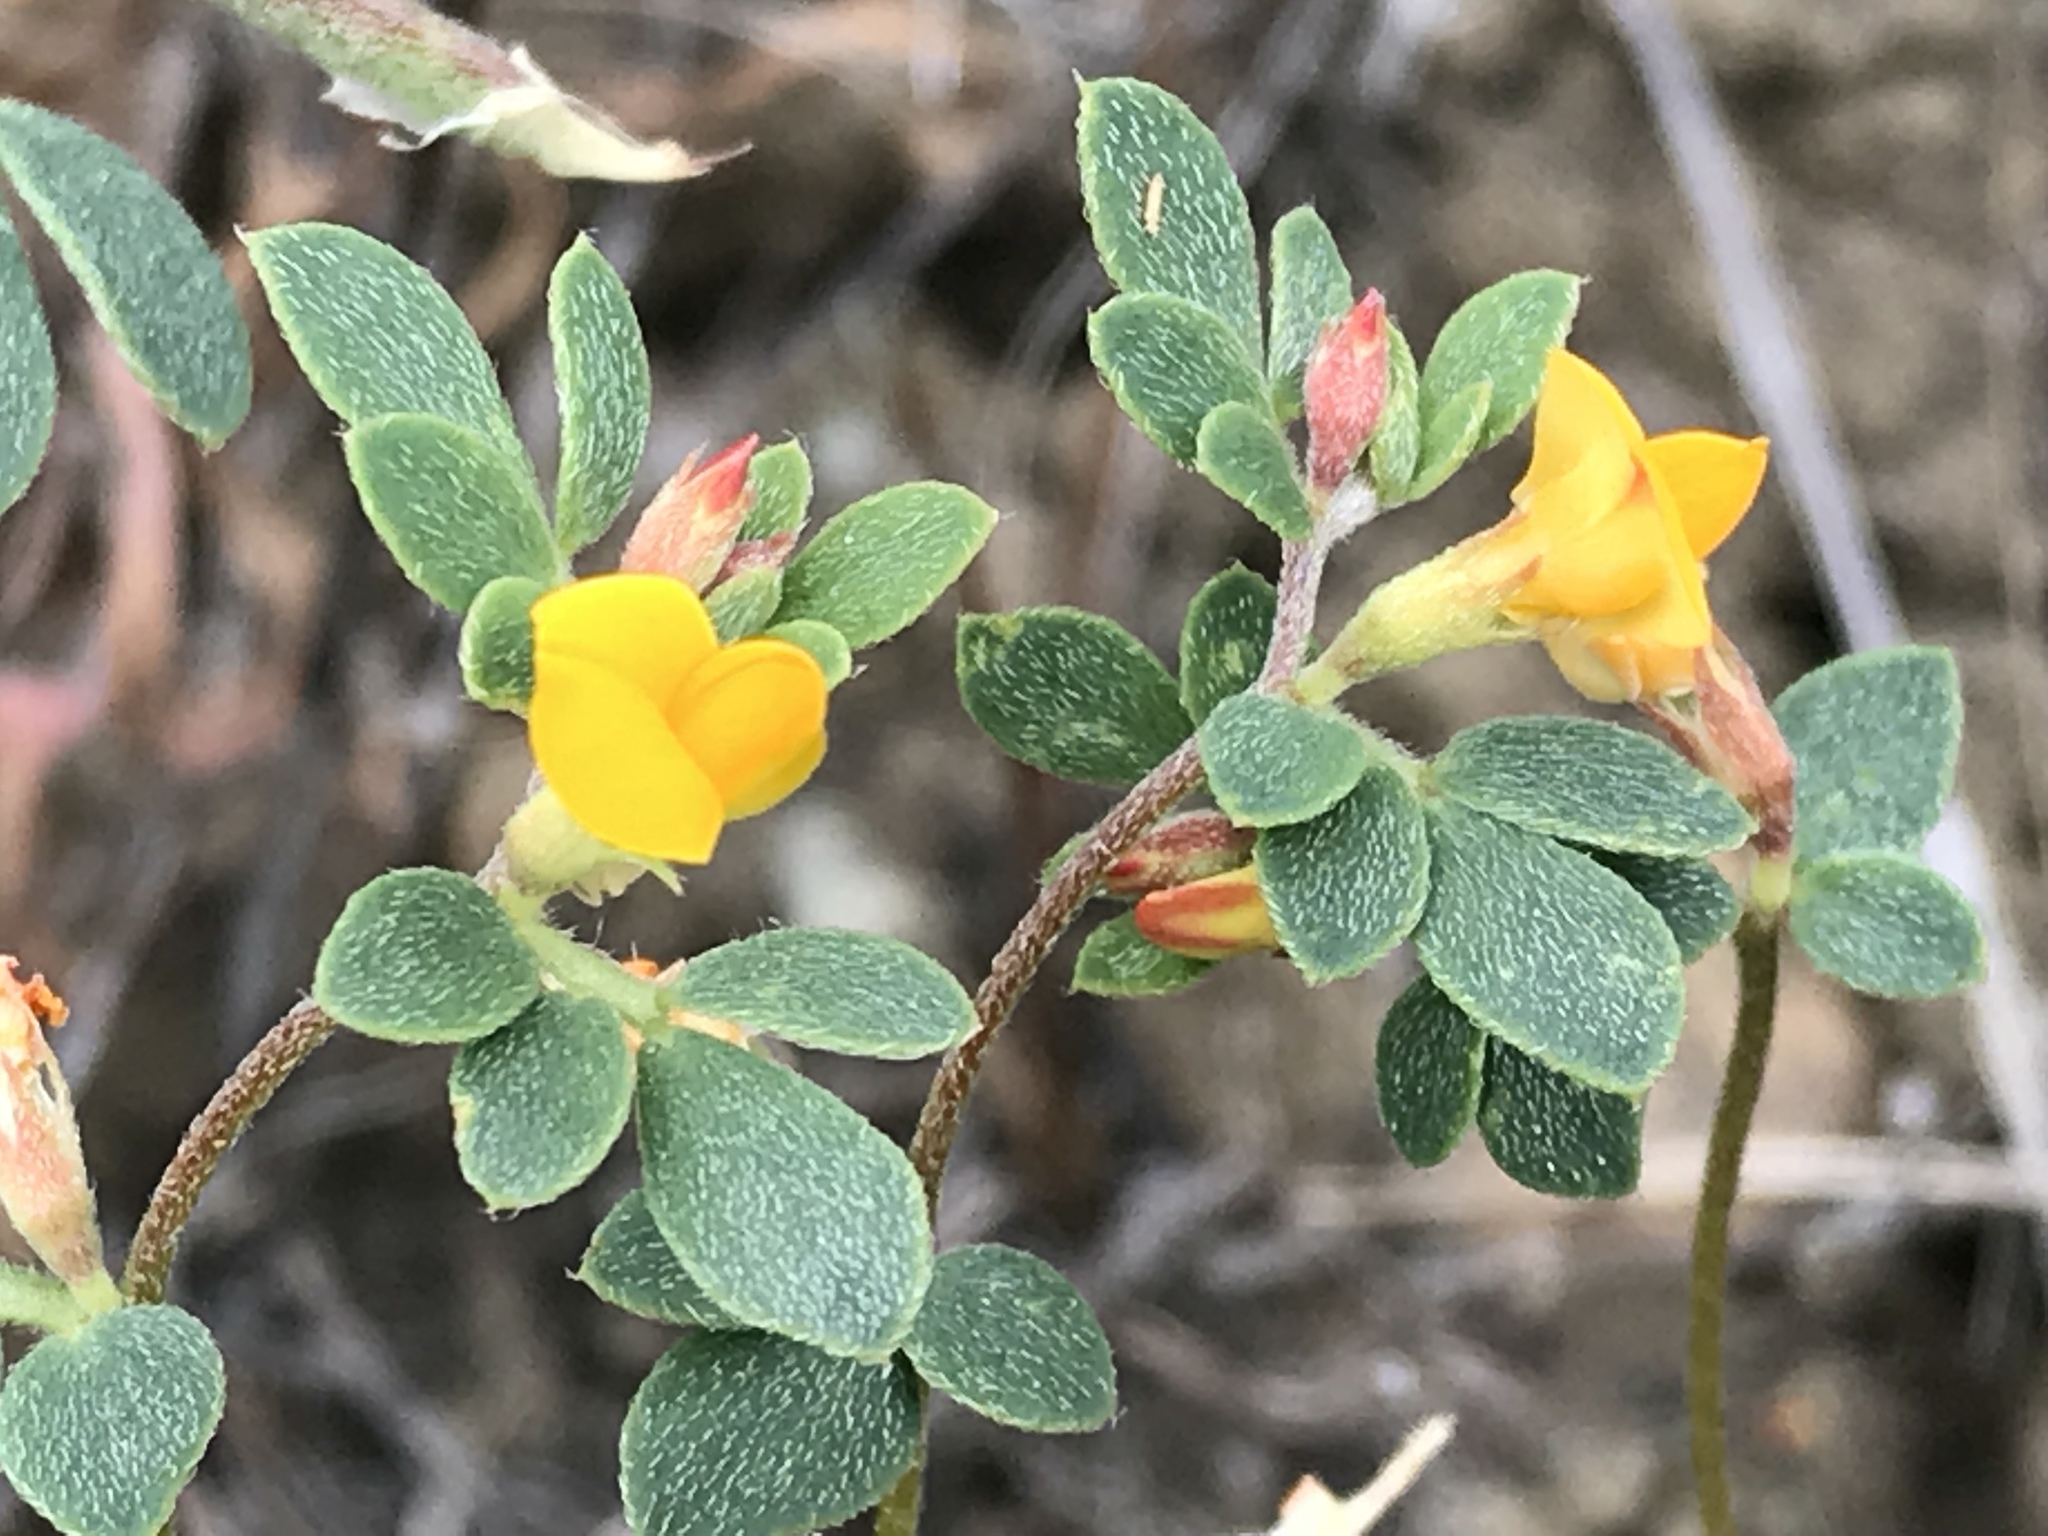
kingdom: Plantae
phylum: Tracheophyta
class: Magnoliopsida
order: Fabales
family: Fabaceae
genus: Acmispon
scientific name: Acmispon wrangelianus
